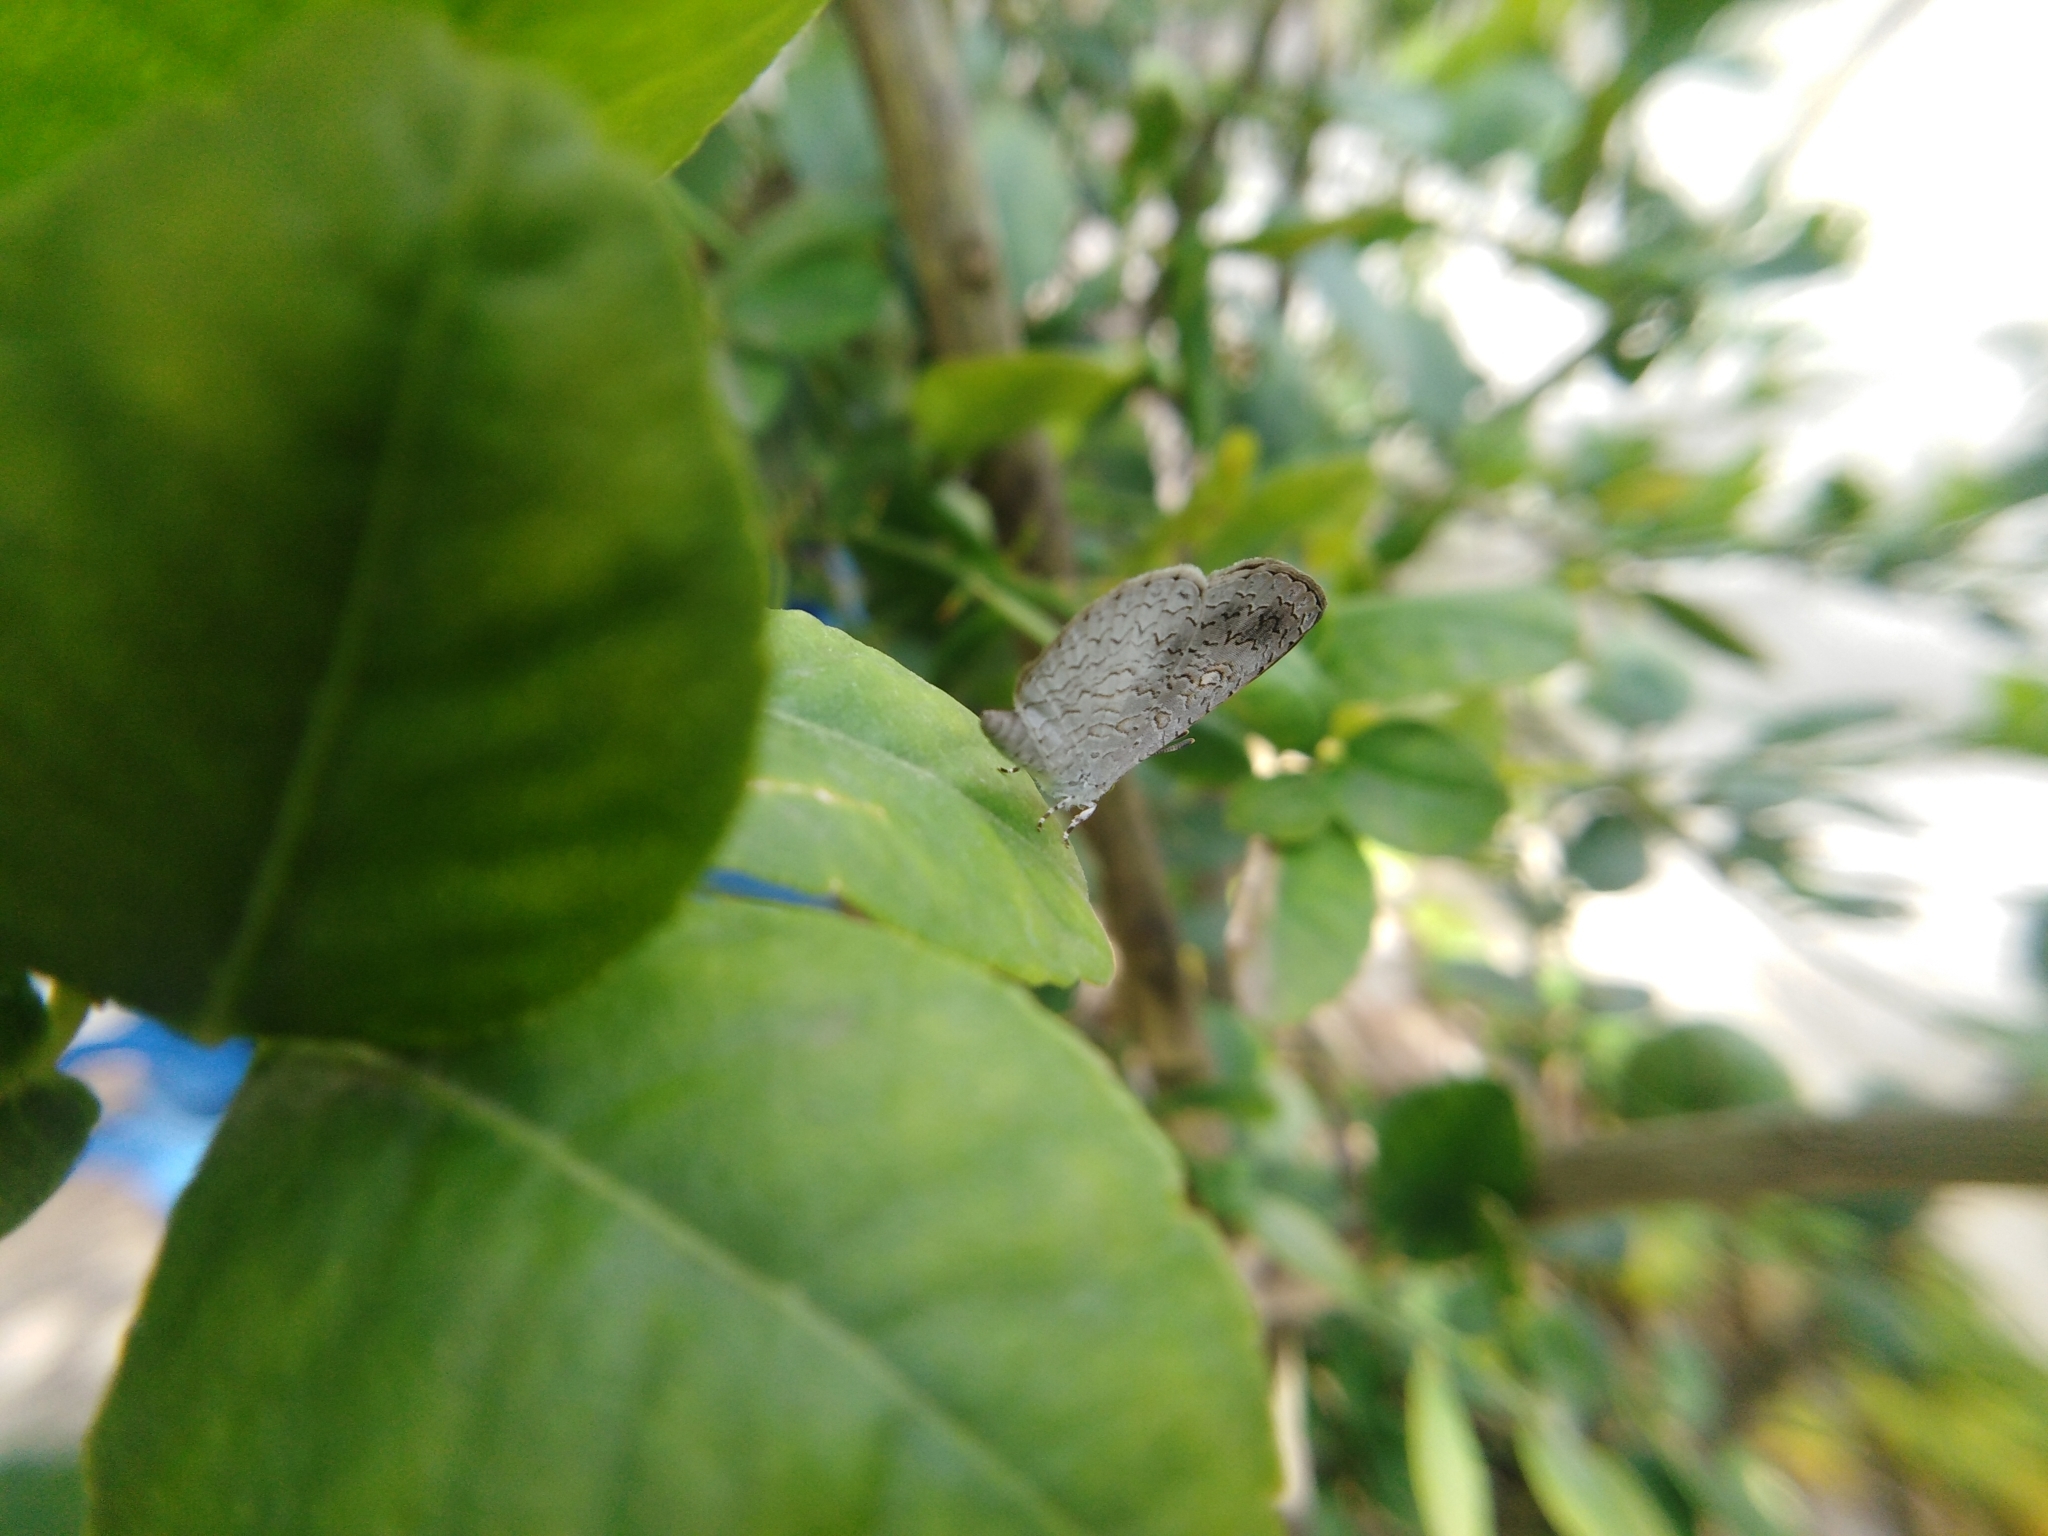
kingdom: Animalia
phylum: Arthropoda
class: Insecta
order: Lepidoptera
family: Lycaenidae
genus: Spalgis
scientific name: Spalgis epius
